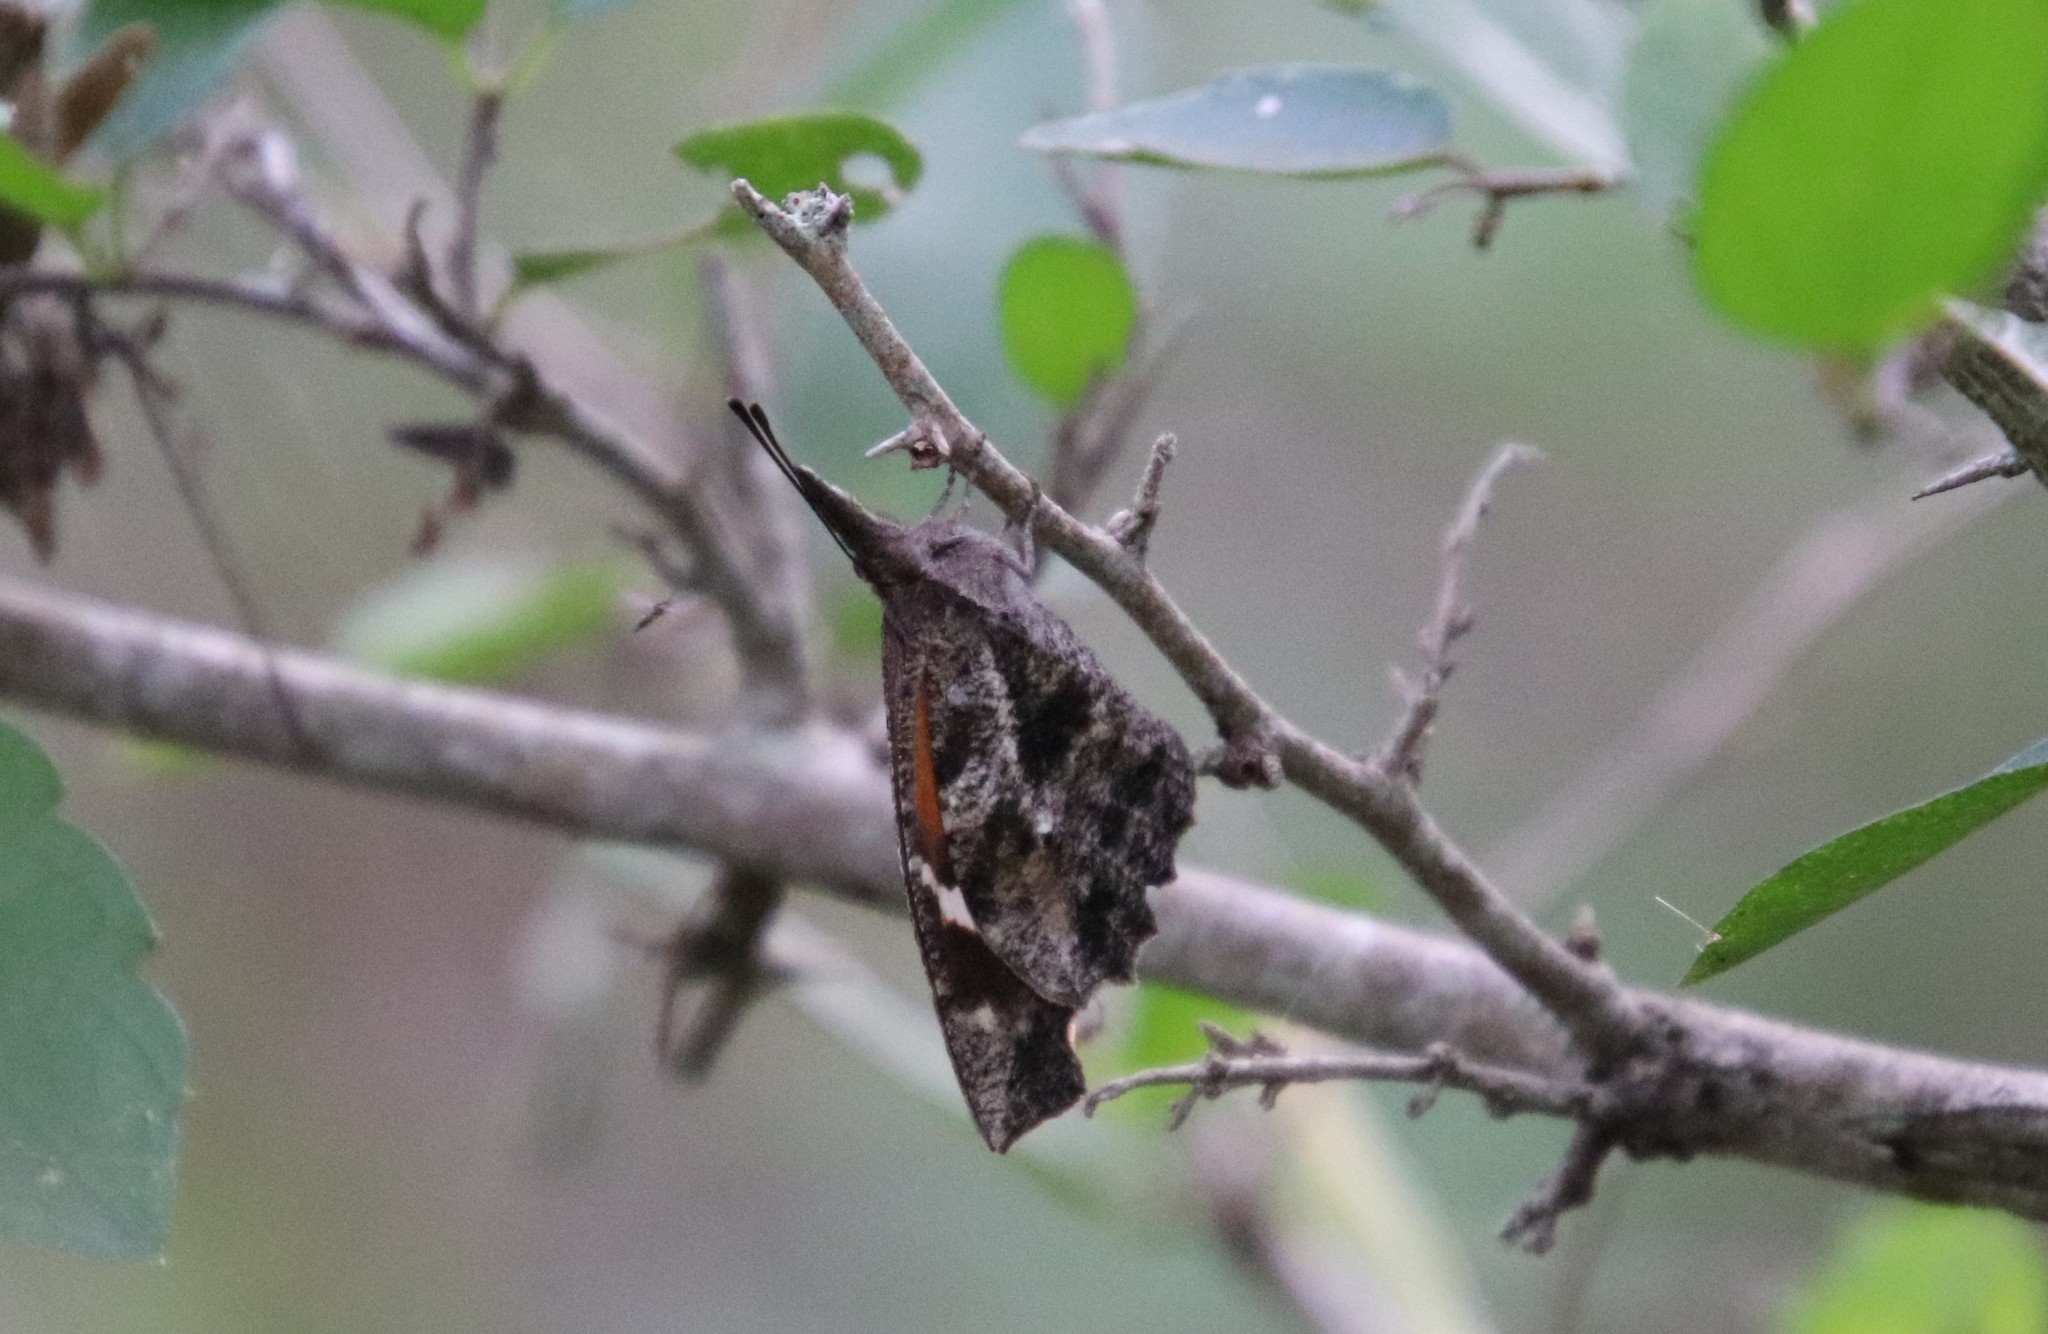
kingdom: Animalia
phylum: Arthropoda
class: Insecta
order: Lepidoptera
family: Nymphalidae
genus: Libytheana
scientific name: Libytheana carinenta
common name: American snout
